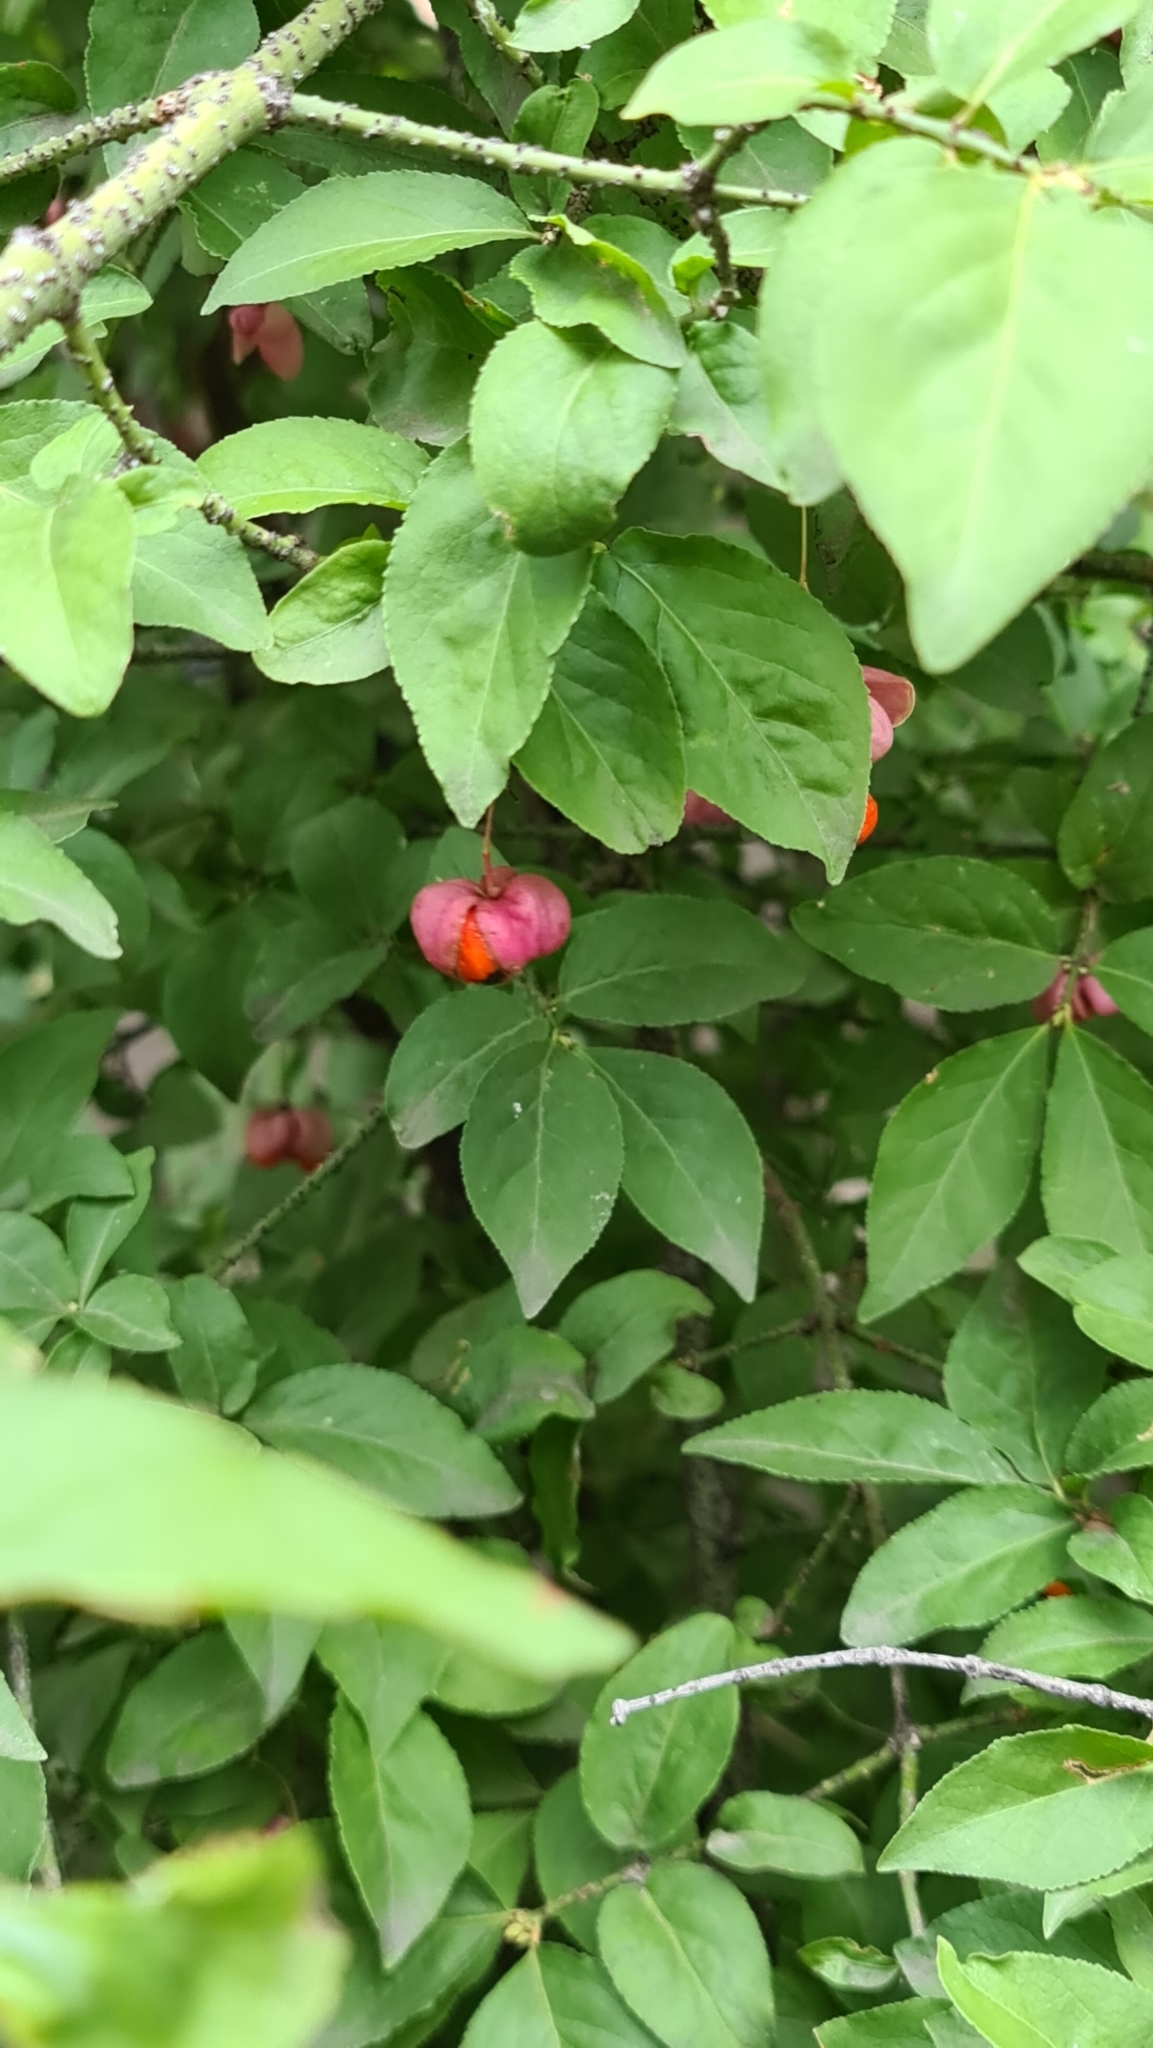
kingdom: Plantae
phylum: Tracheophyta
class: Magnoliopsida
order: Celastrales
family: Celastraceae
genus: Euonymus
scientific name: Euonymus verrucosus
